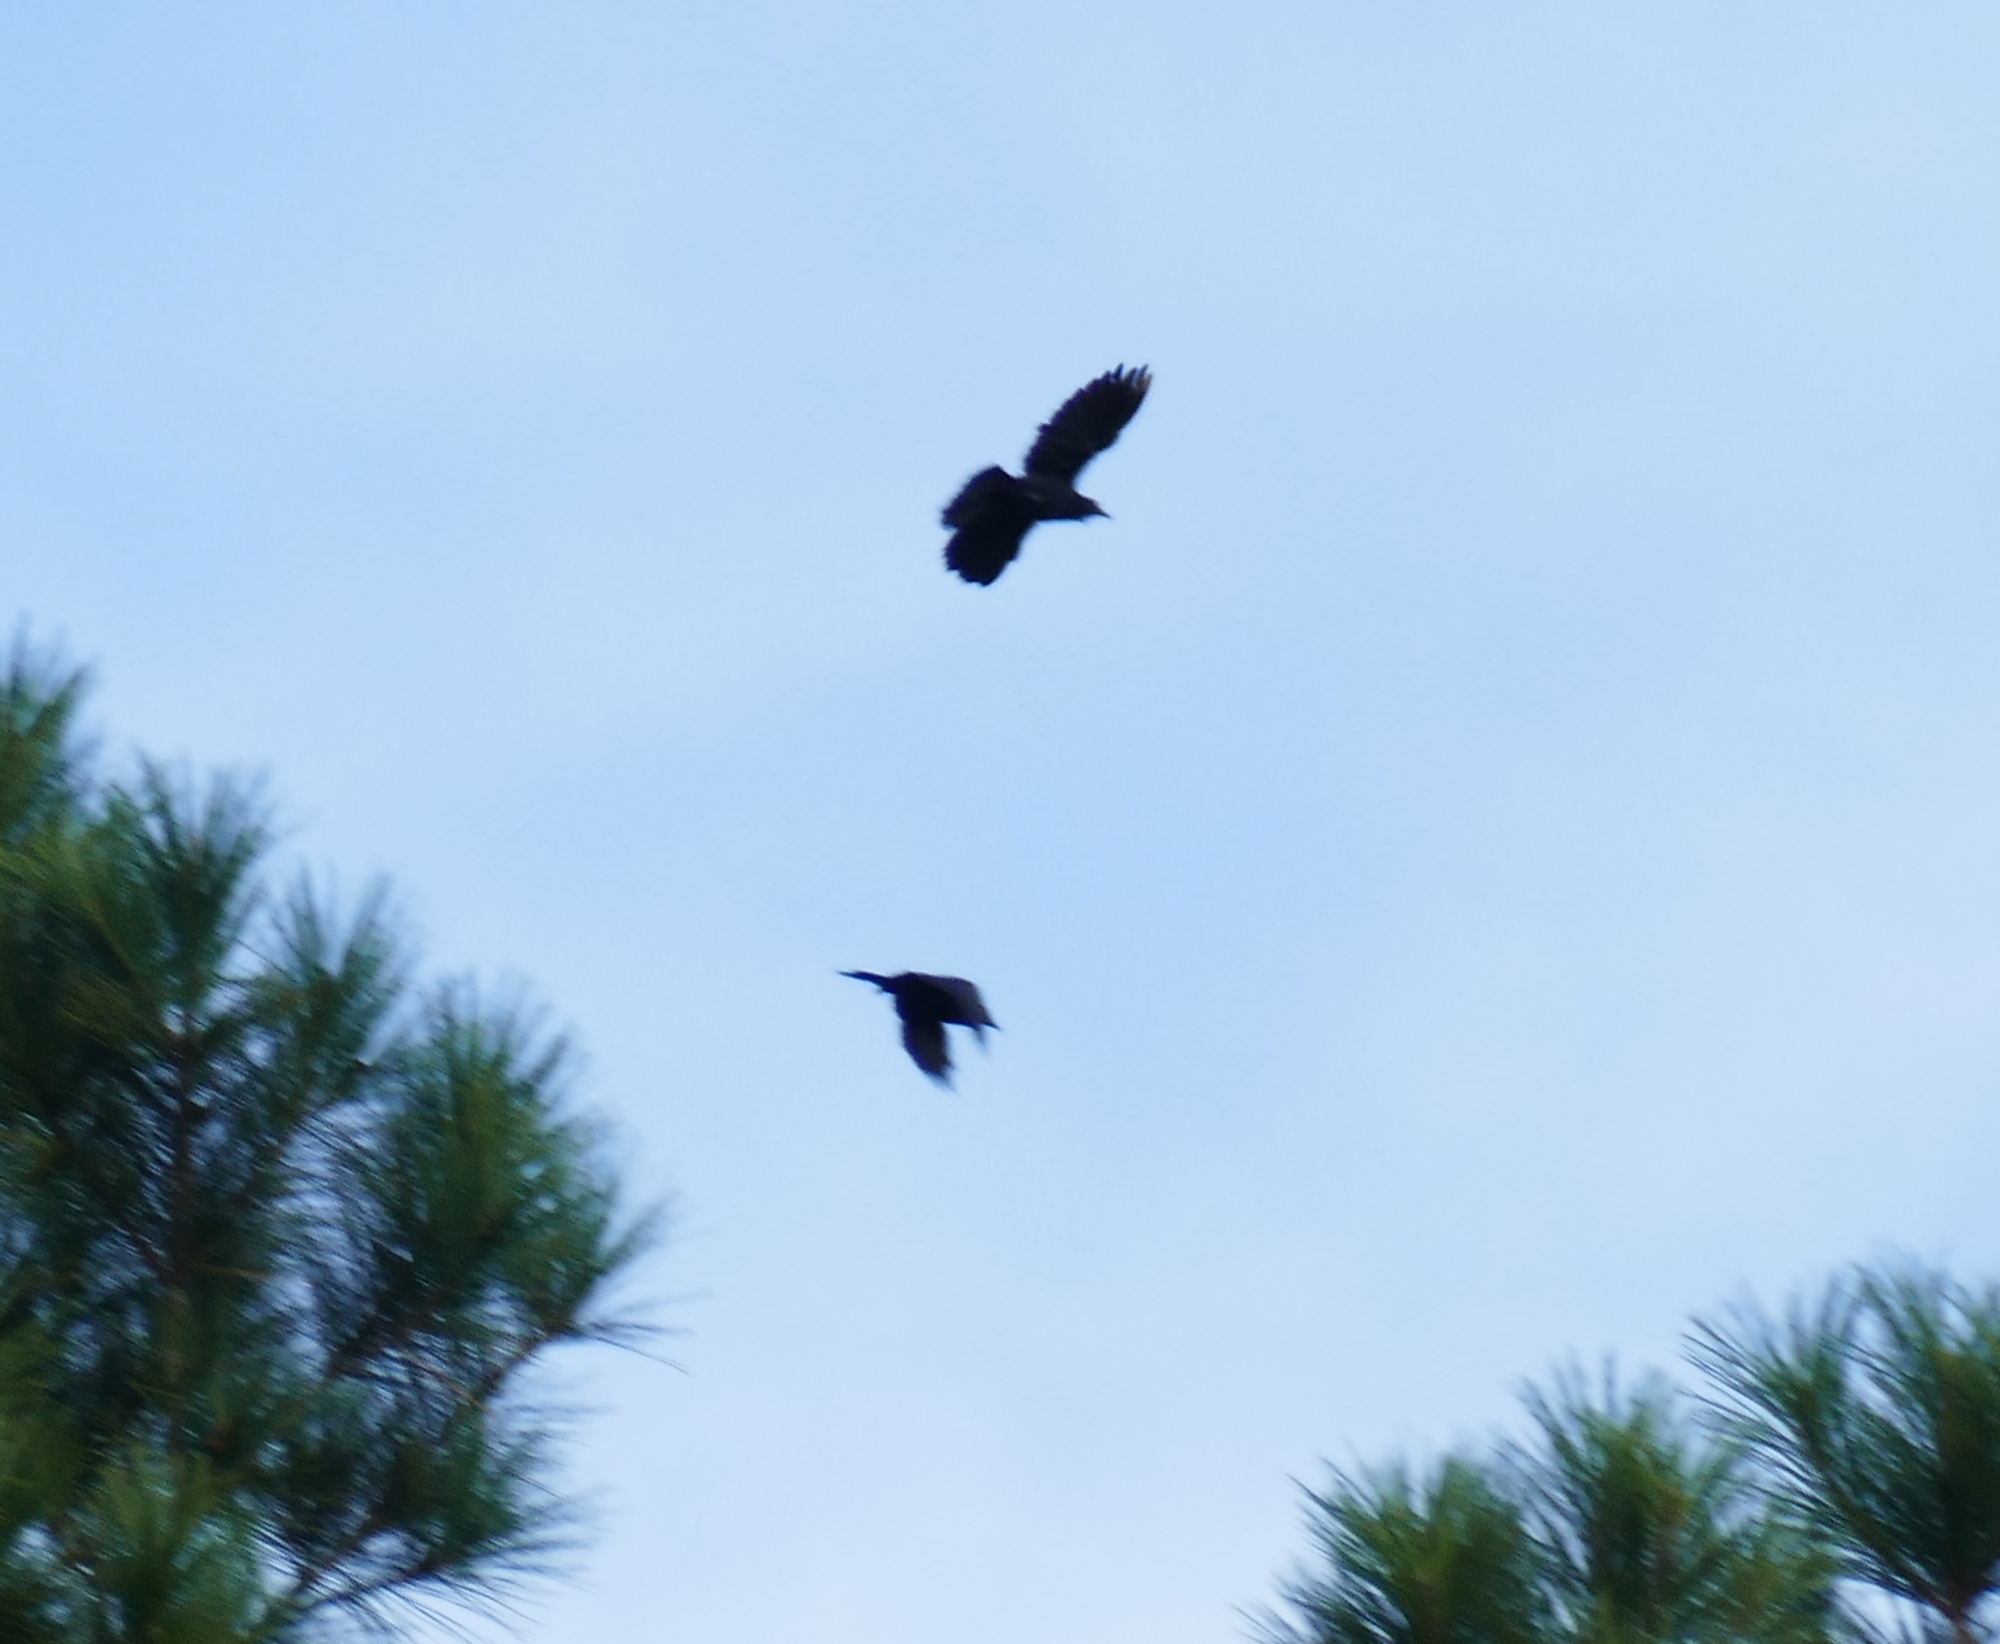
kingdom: Animalia
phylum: Chordata
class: Aves
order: Passeriformes
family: Icteridae
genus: Quiscalus
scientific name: Quiscalus quiscula
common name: Common grackle
